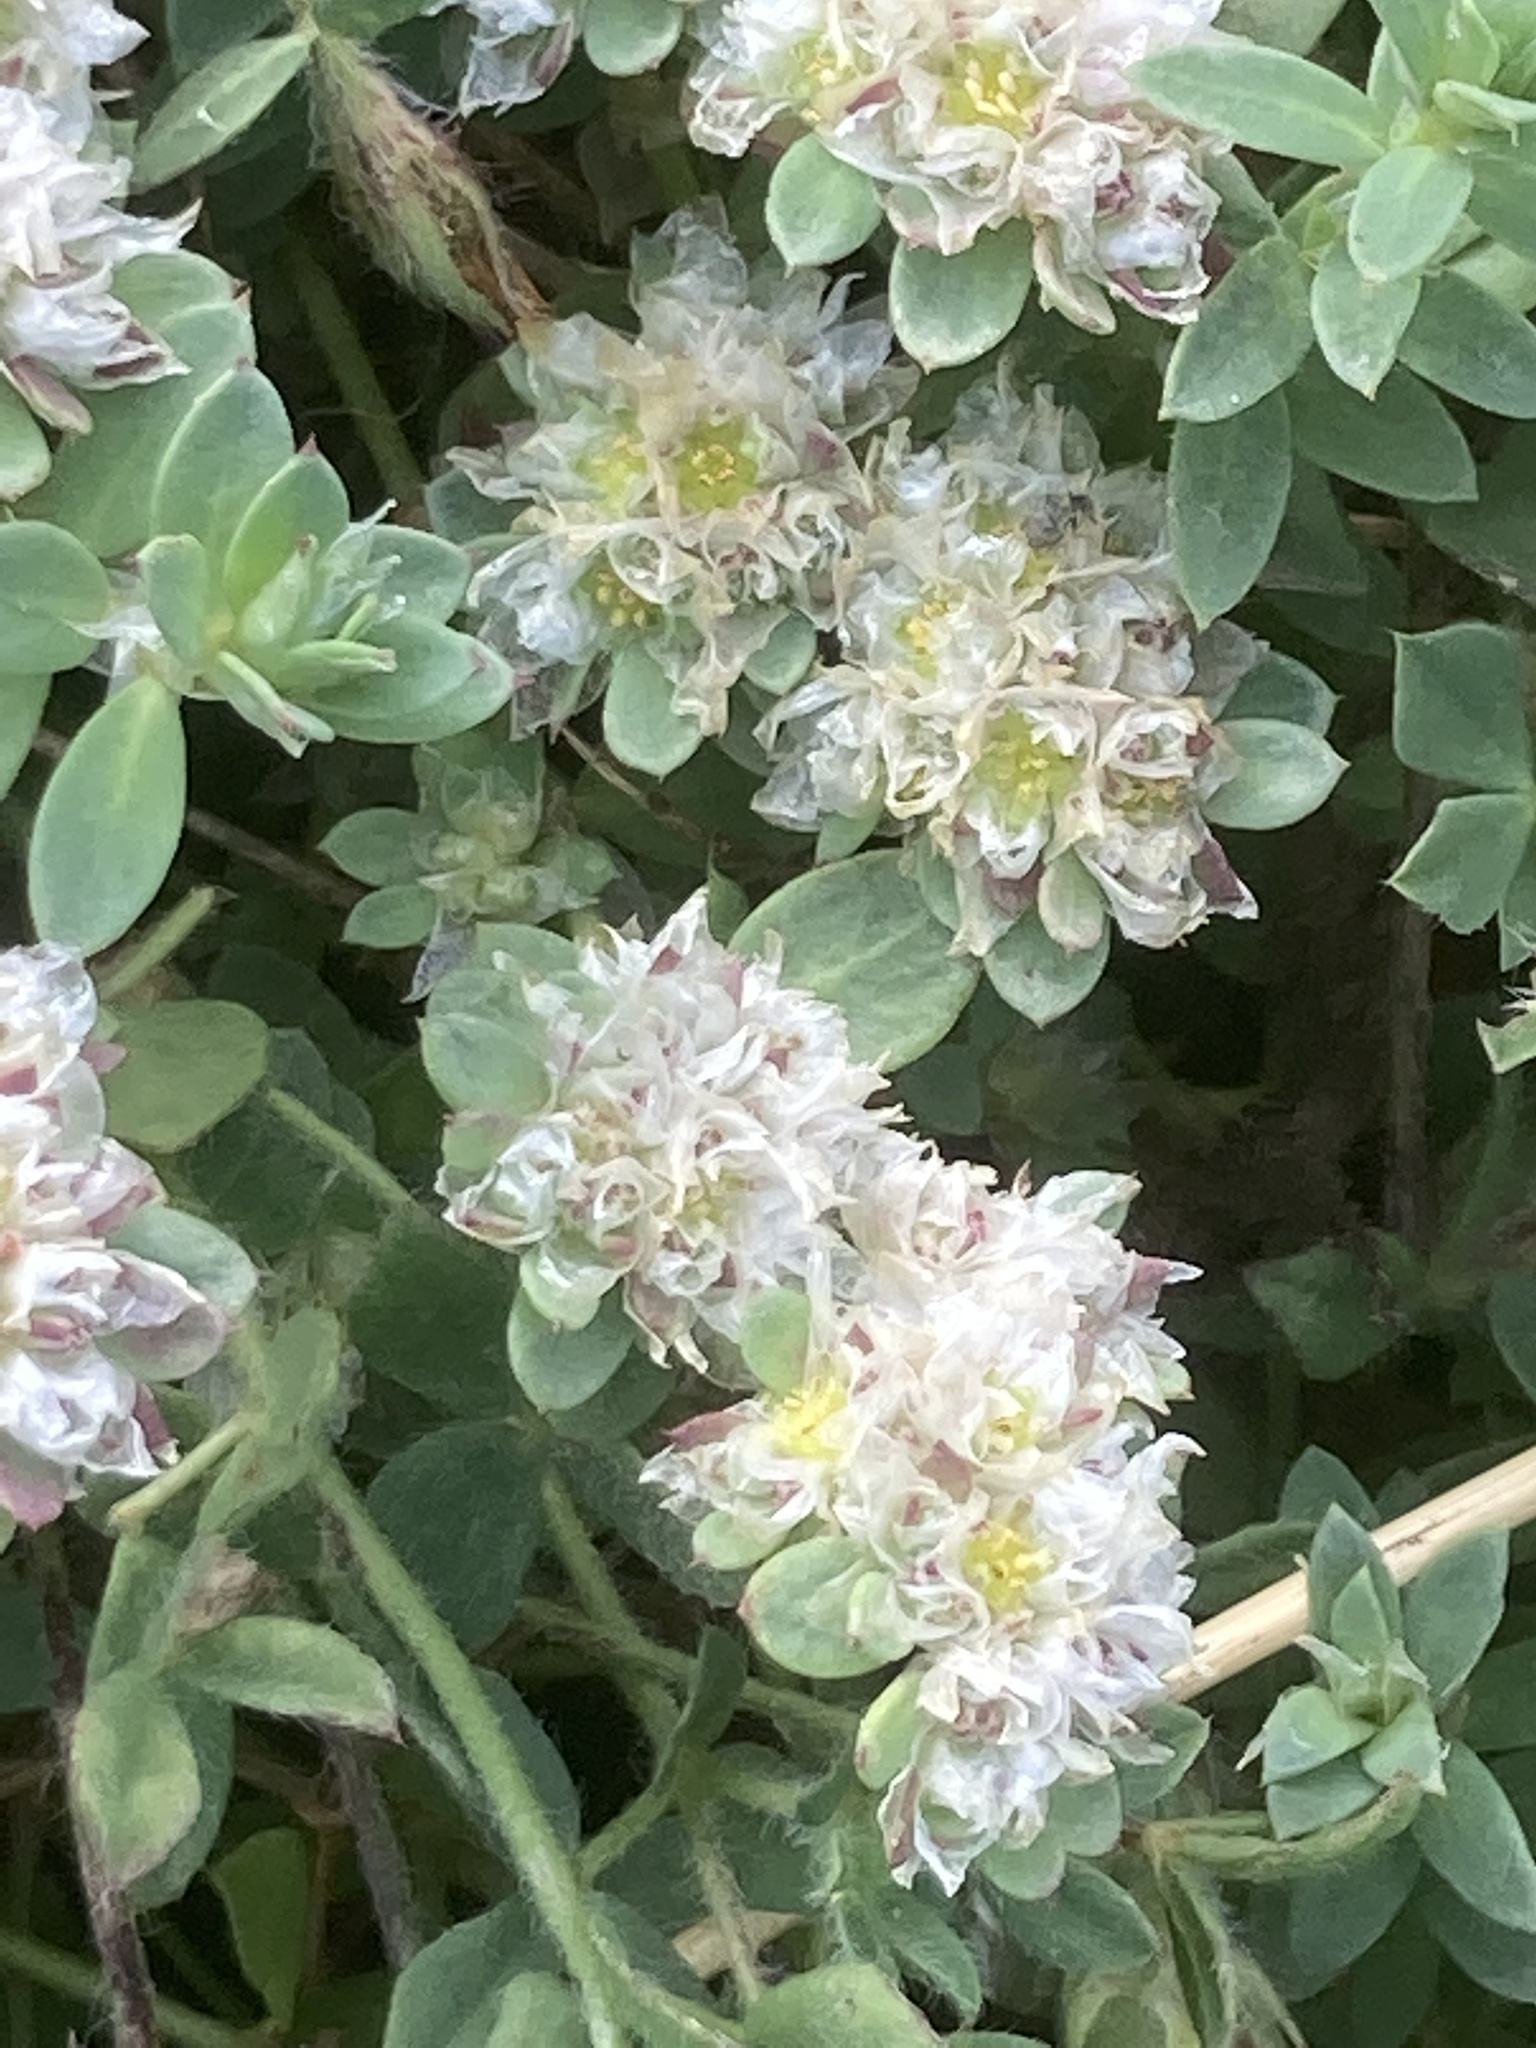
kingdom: Plantae
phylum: Tracheophyta
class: Magnoliopsida
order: Caryophyllales
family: Caryophyllaceae
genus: Paronychia
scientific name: Paronychia argentea
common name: Silver nailroot
